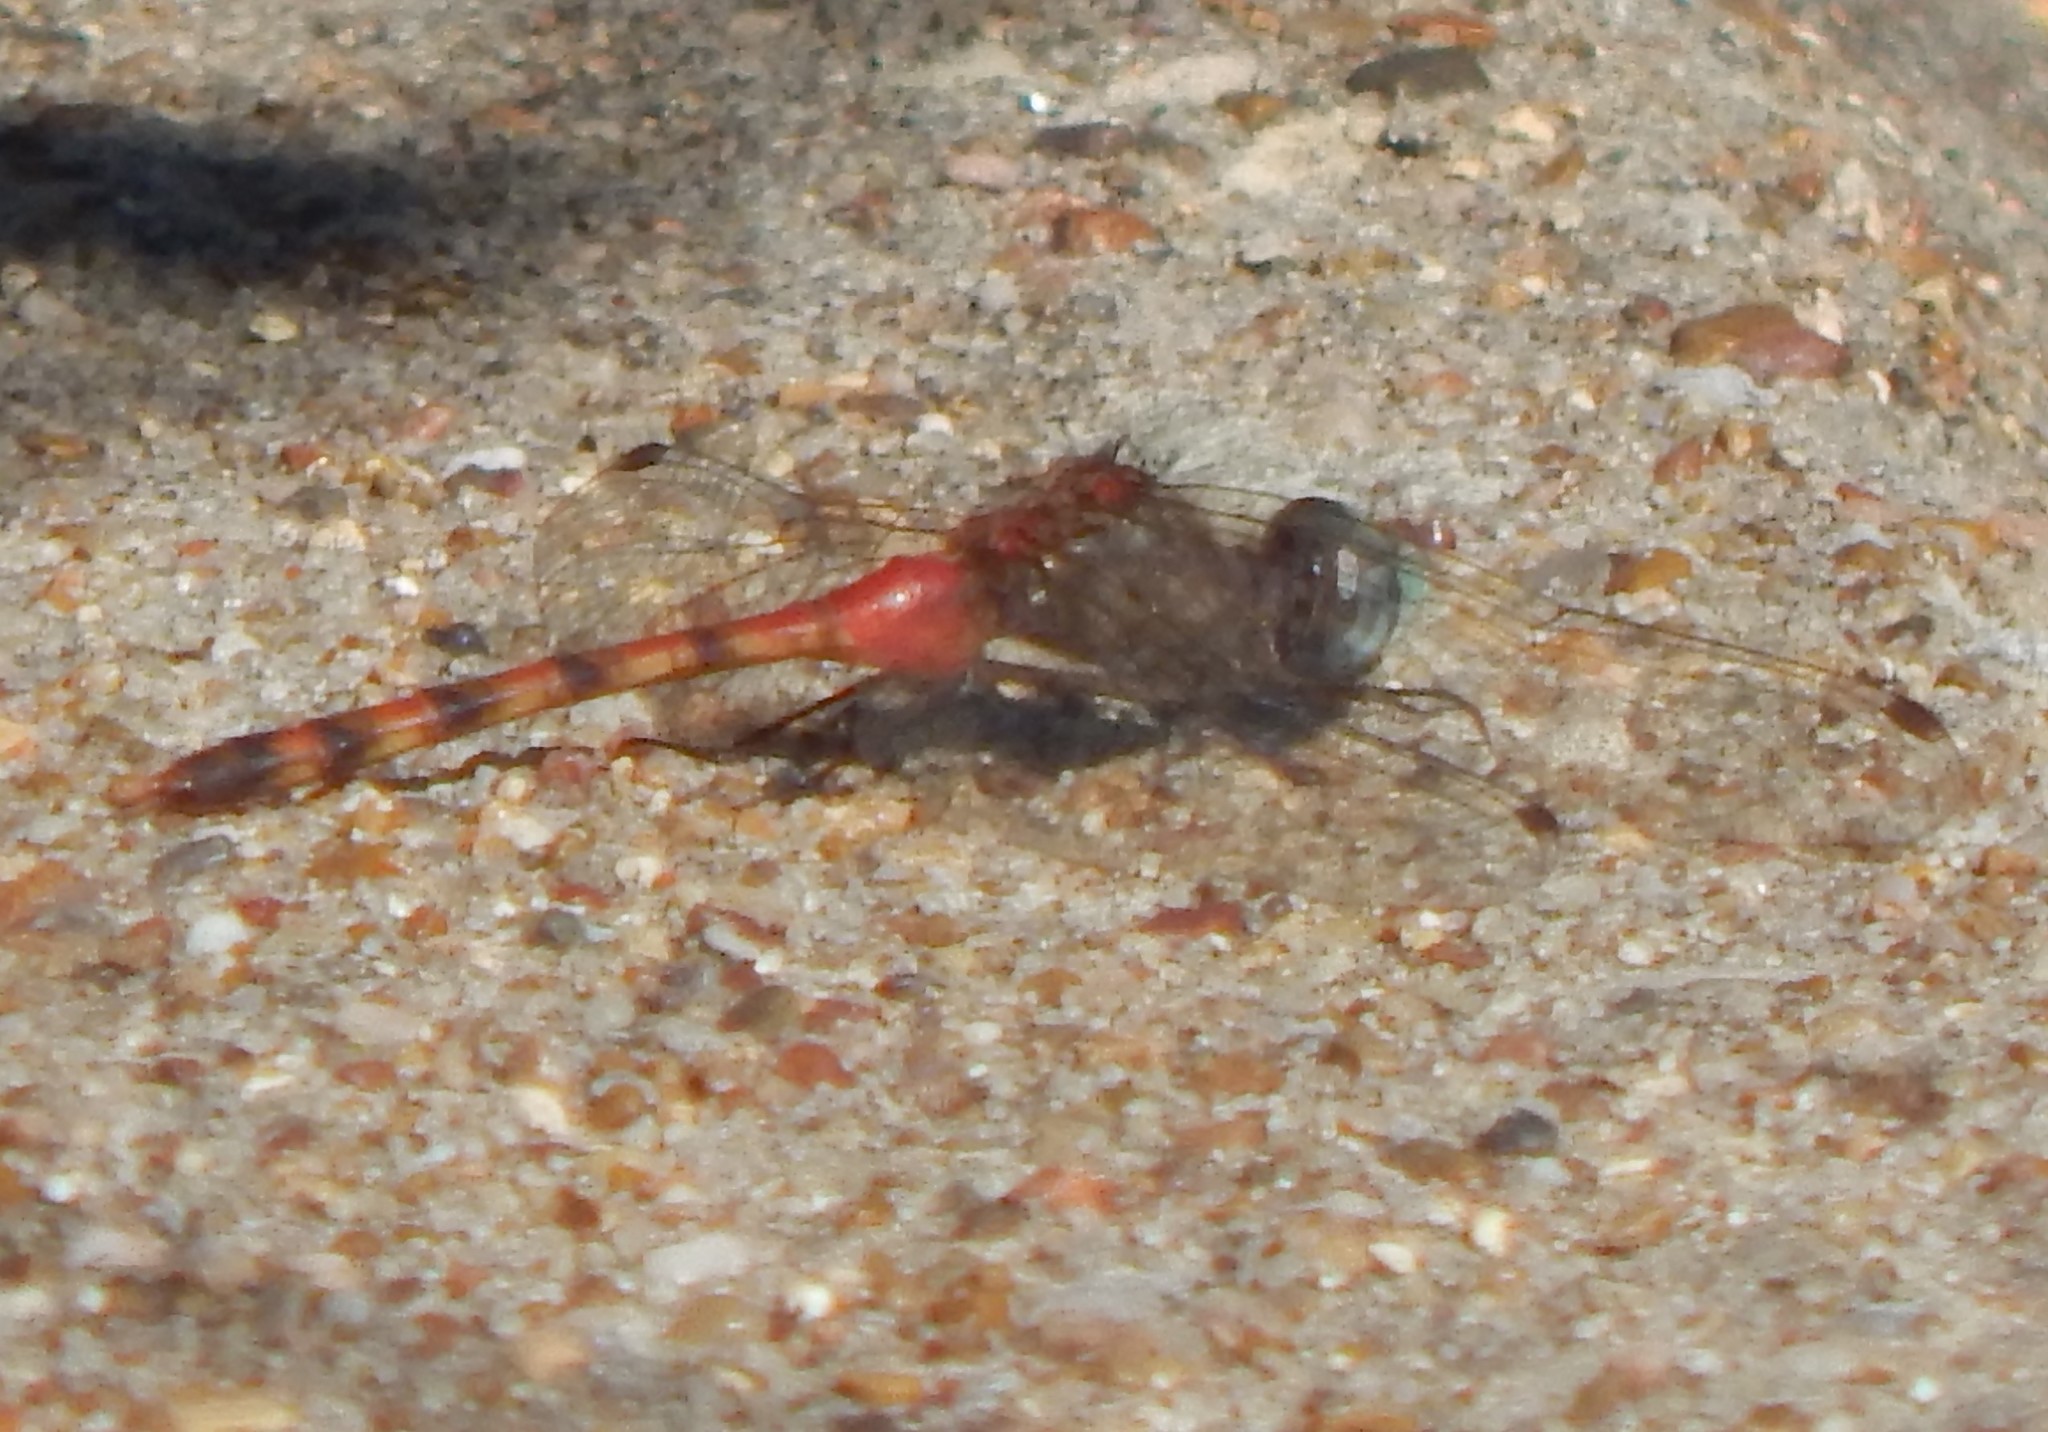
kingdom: Animalia
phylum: Arthropoda
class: Insecta
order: Odonata
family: Libellulidae
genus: Sympetrum
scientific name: Sympetrum ambiguum
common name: Blue-faced meadowhawk
